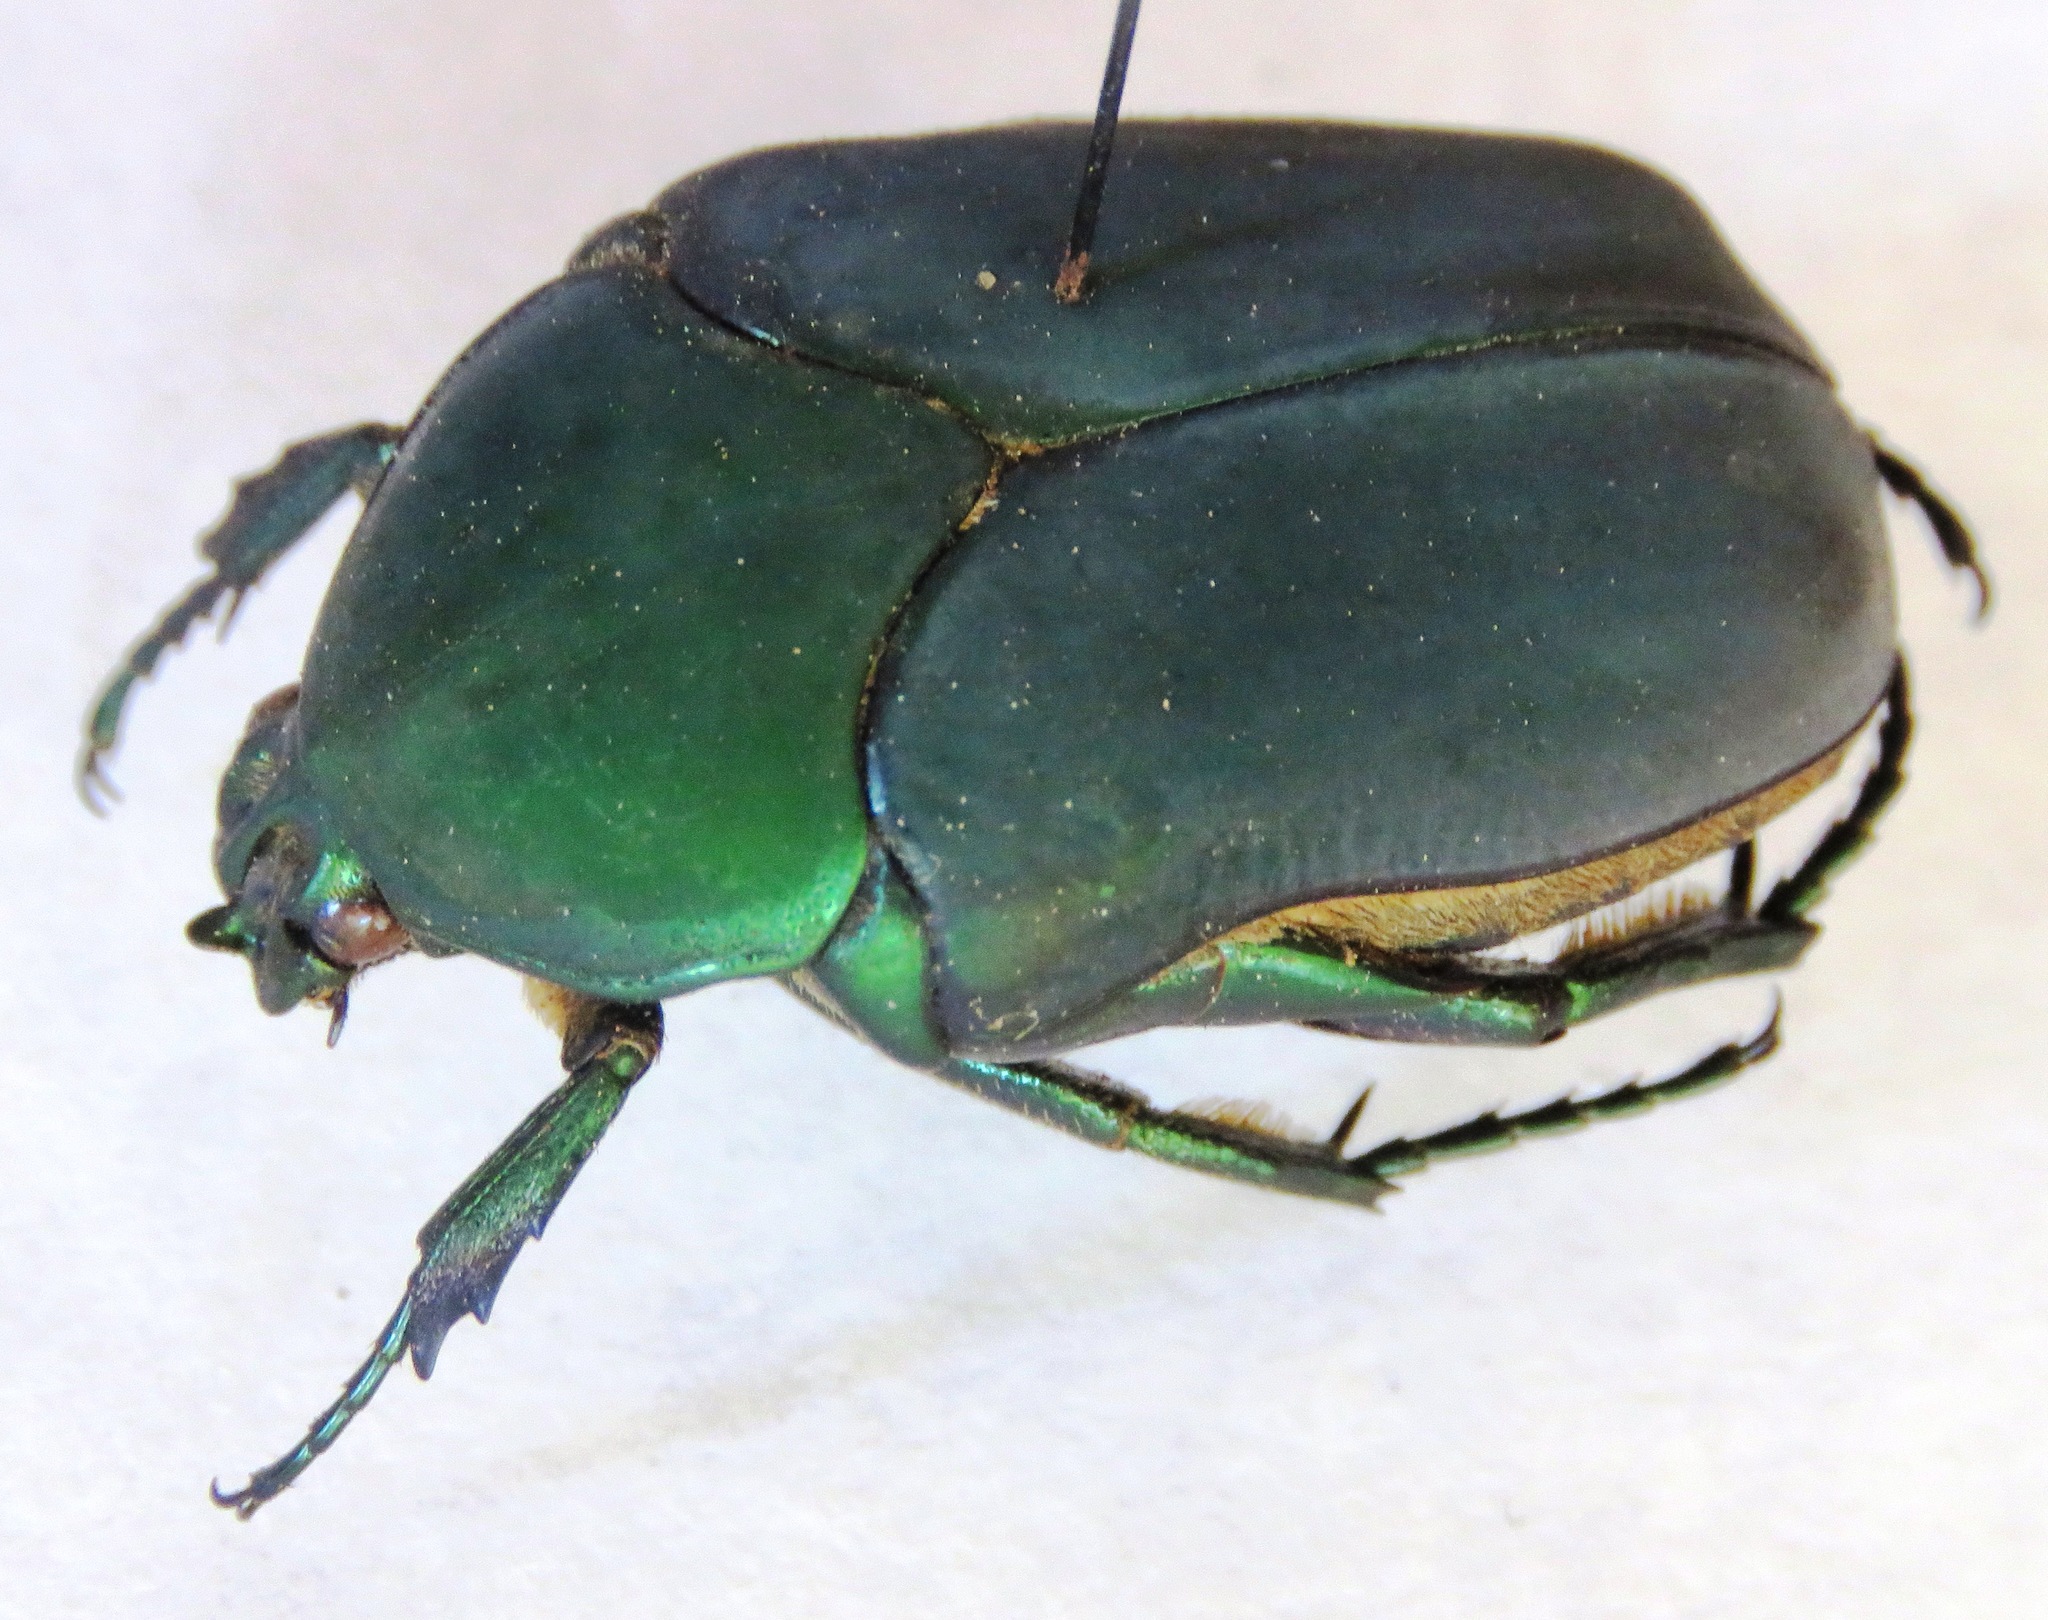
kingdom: Animalia
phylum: Arthropoda
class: Insecta
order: Coleoptera
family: Scarabaeidae
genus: Cotinis
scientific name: Cotinis mutabilis
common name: Figeater beetle
